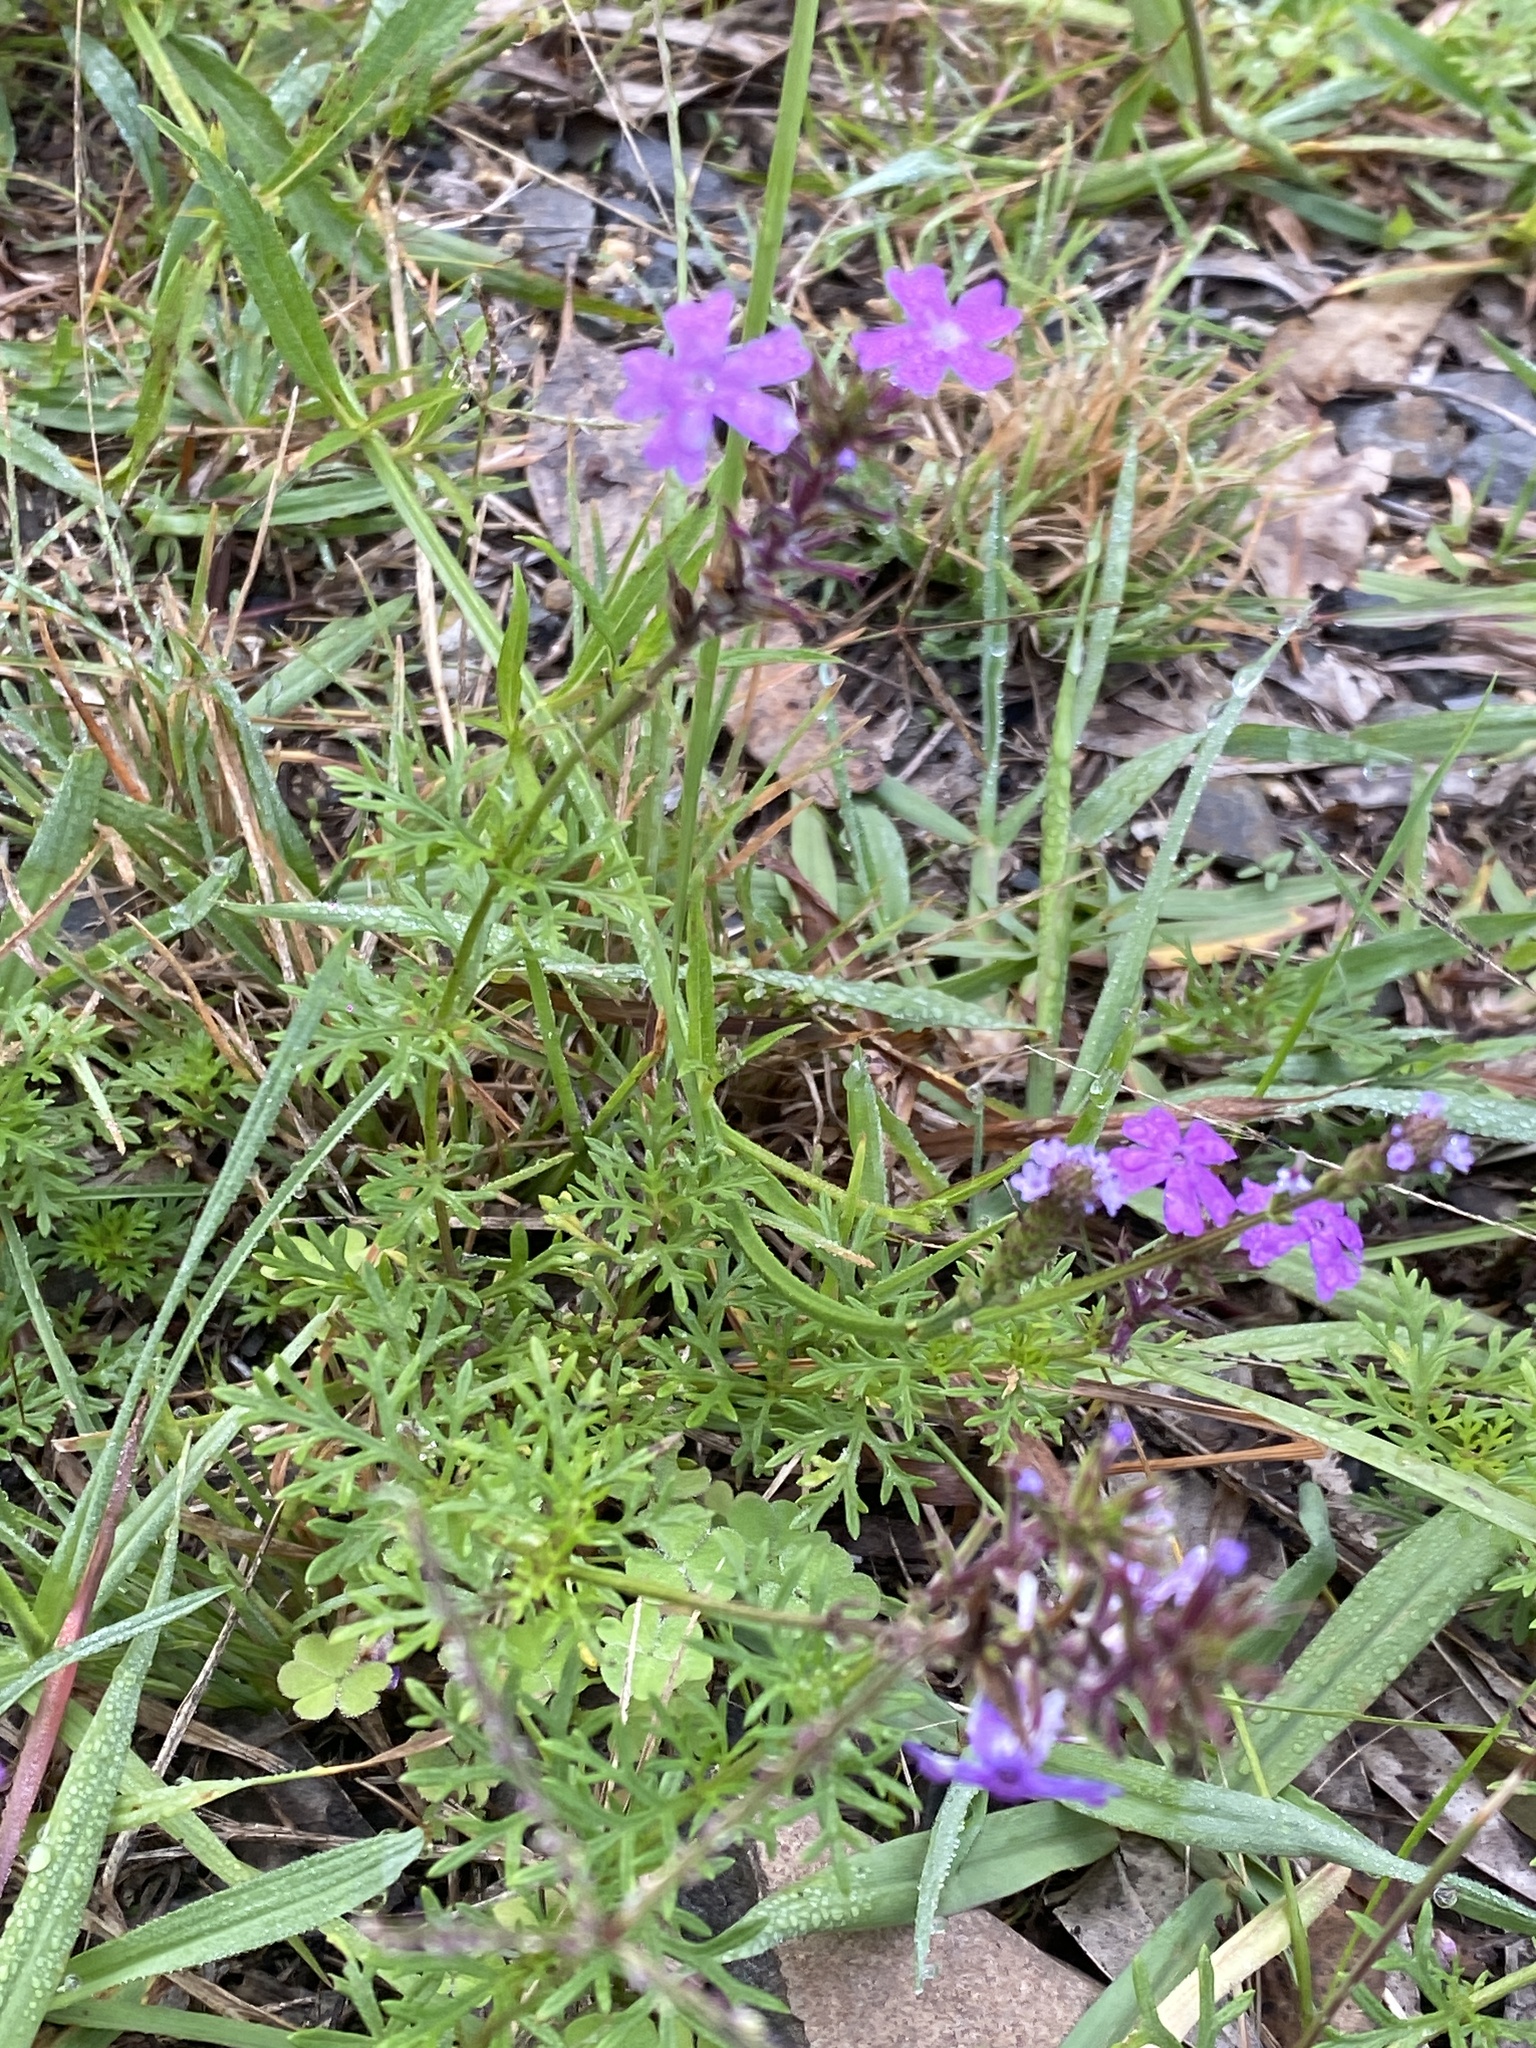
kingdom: Plantae
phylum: Tracheophyta
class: Magnoliopsida
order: Lamiales
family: Verbenaceae
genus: Verbena
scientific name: Verbena aristigera
